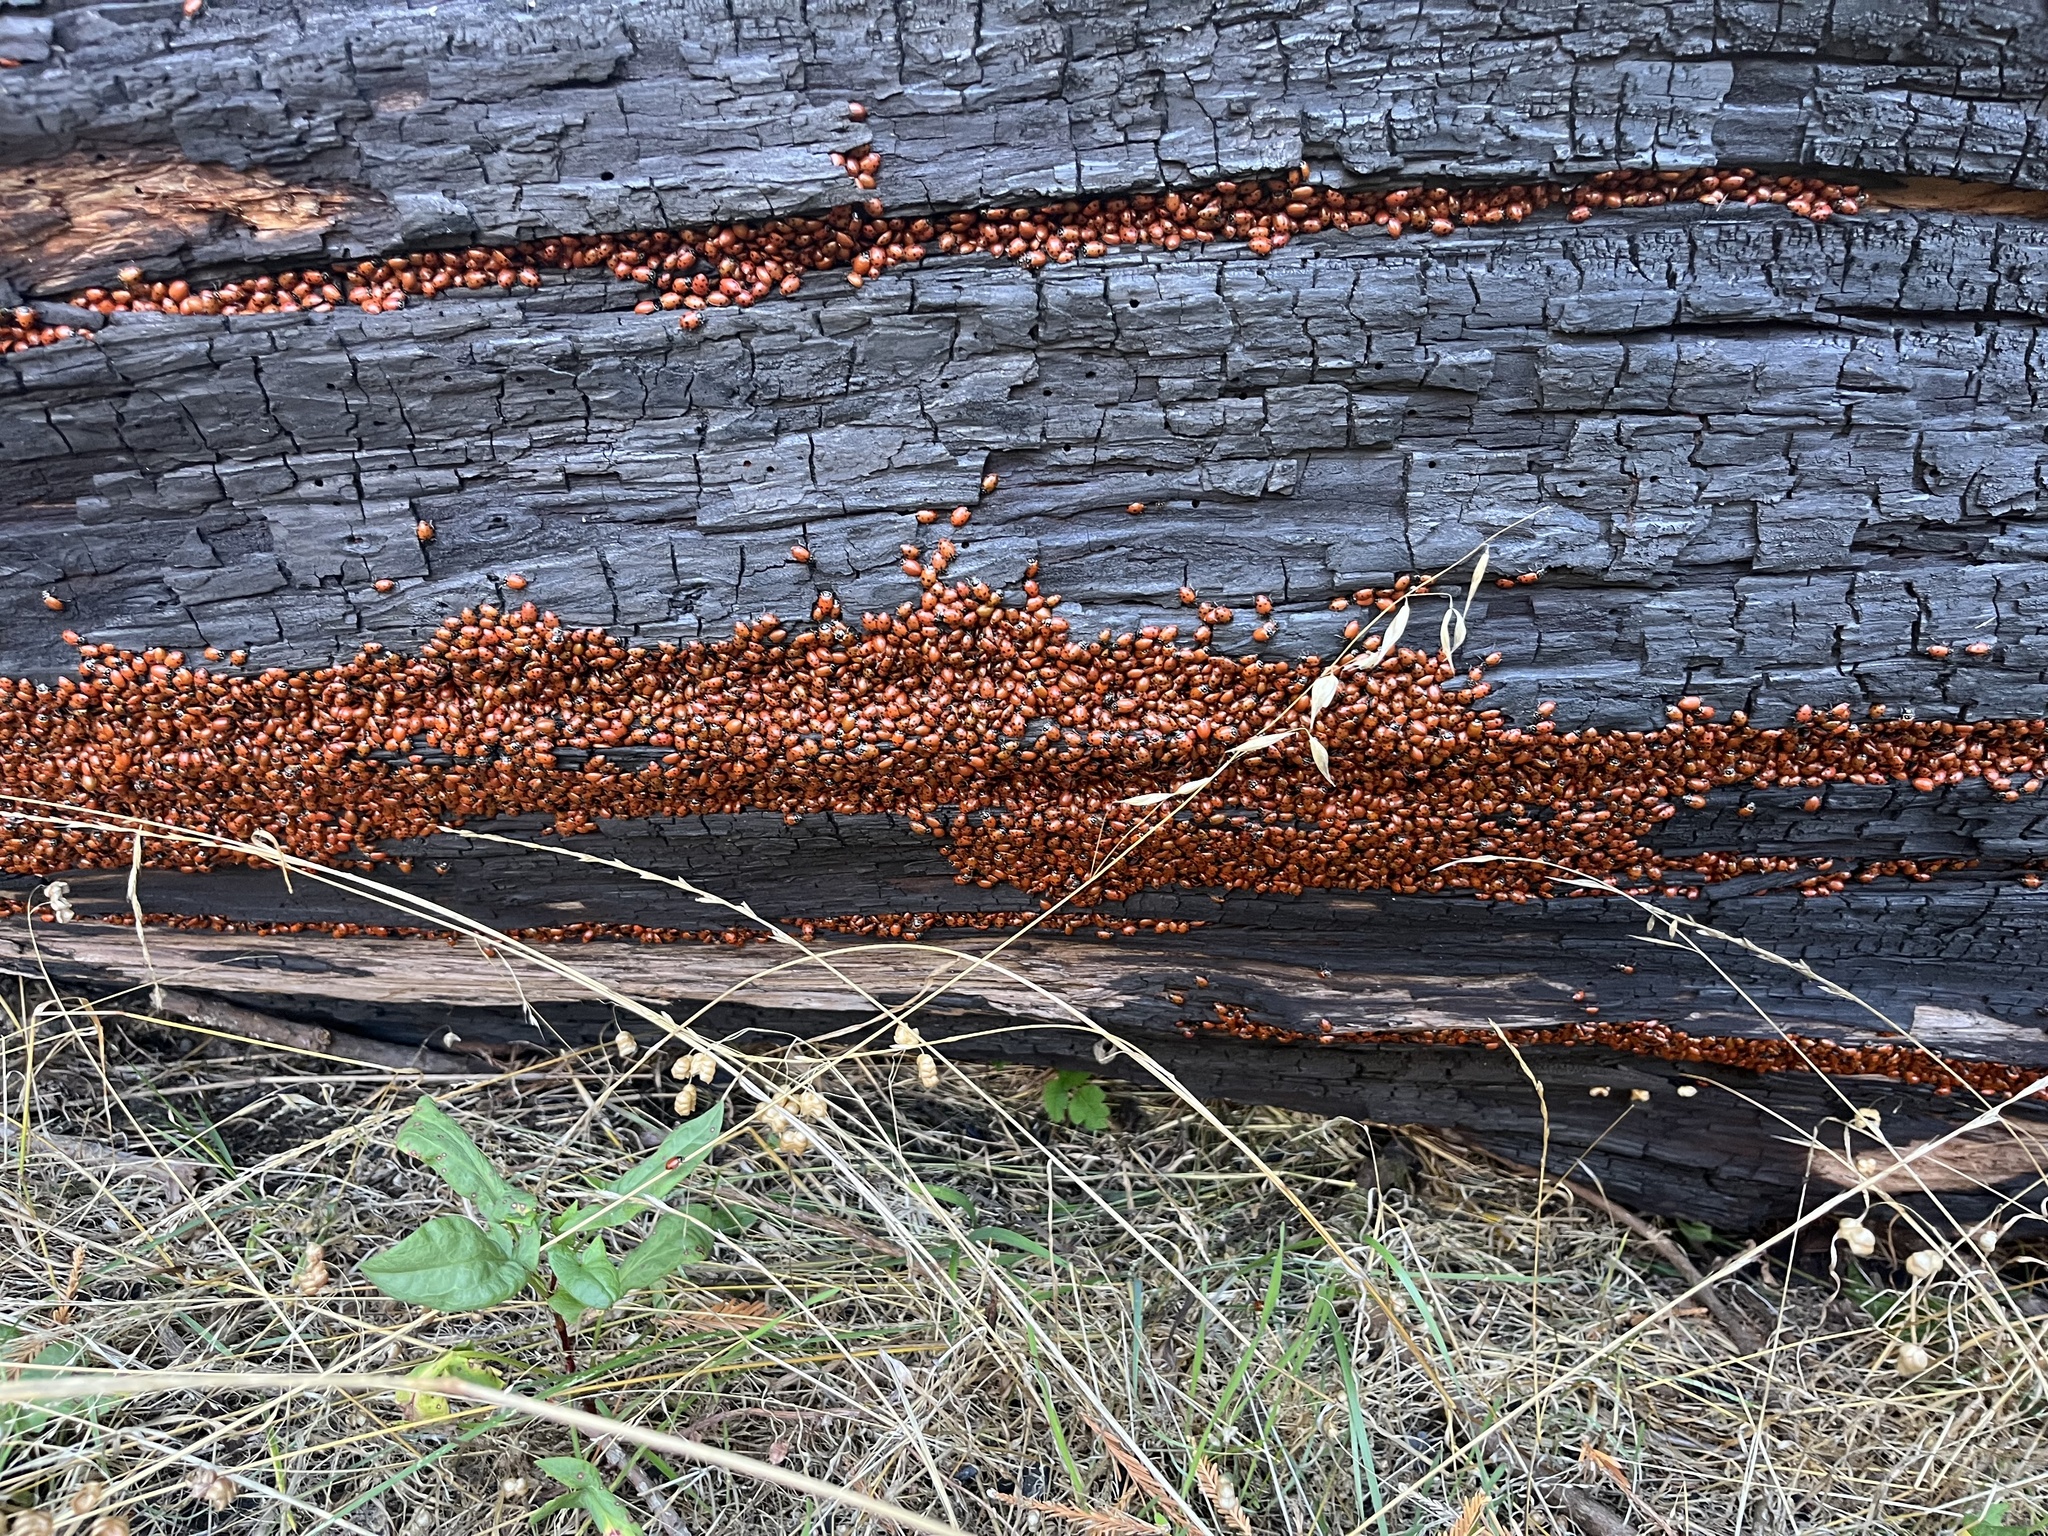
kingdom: Animalia
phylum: Arthropoda
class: Insecta
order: Coleoptera
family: Coccinellidae
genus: Hippodamia
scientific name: Hippodamia convergens
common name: Convergent lady beetle
